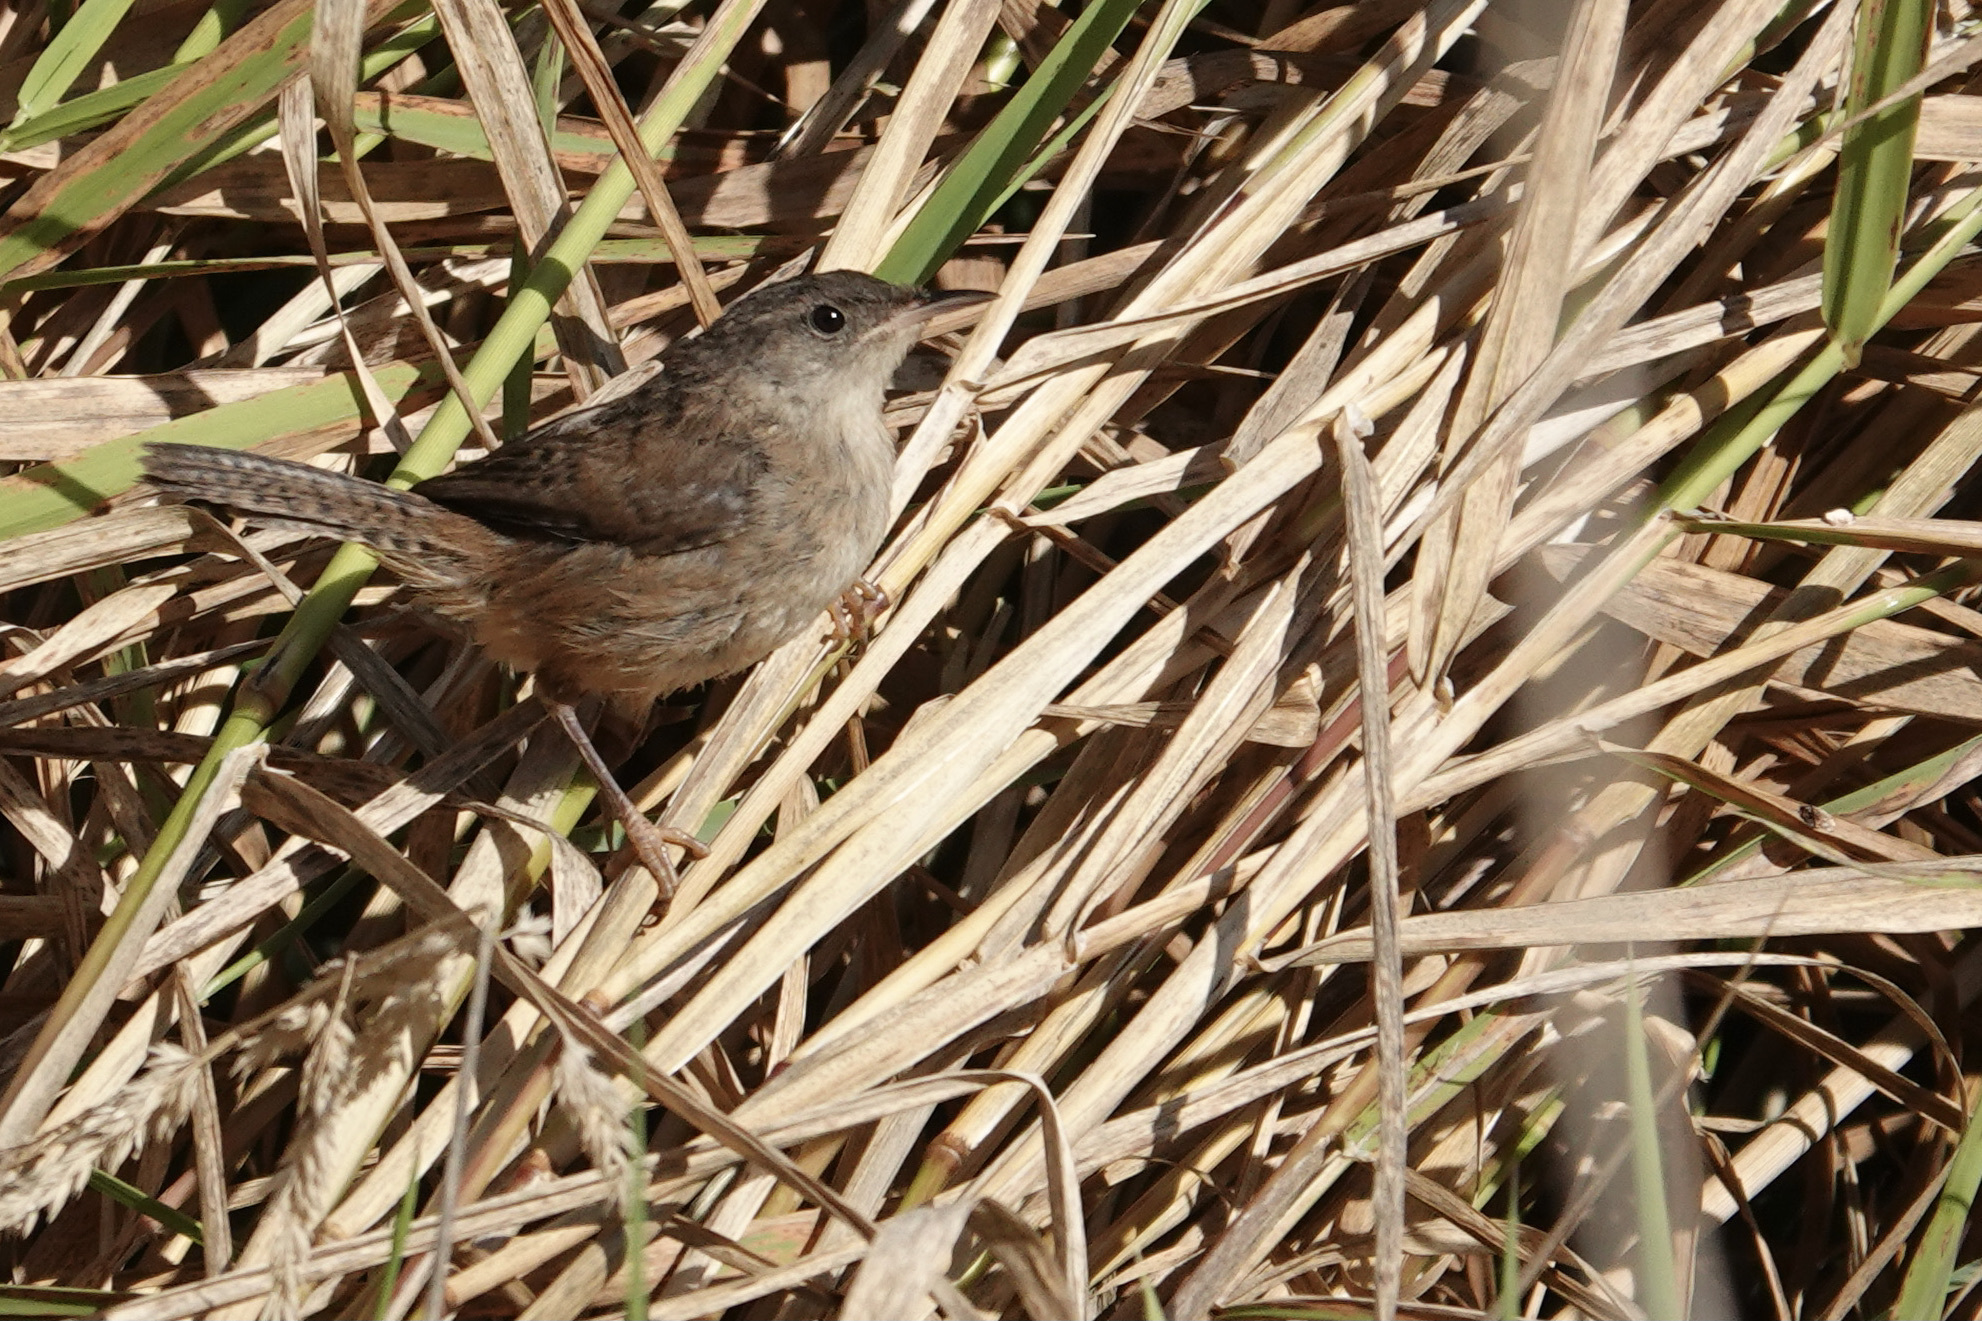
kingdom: Animalia
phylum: Chordata
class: Aves
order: Passeriformes
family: Troglodytidae
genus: Cistothorus
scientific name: Cistothorus palustris
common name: Marsh wren
